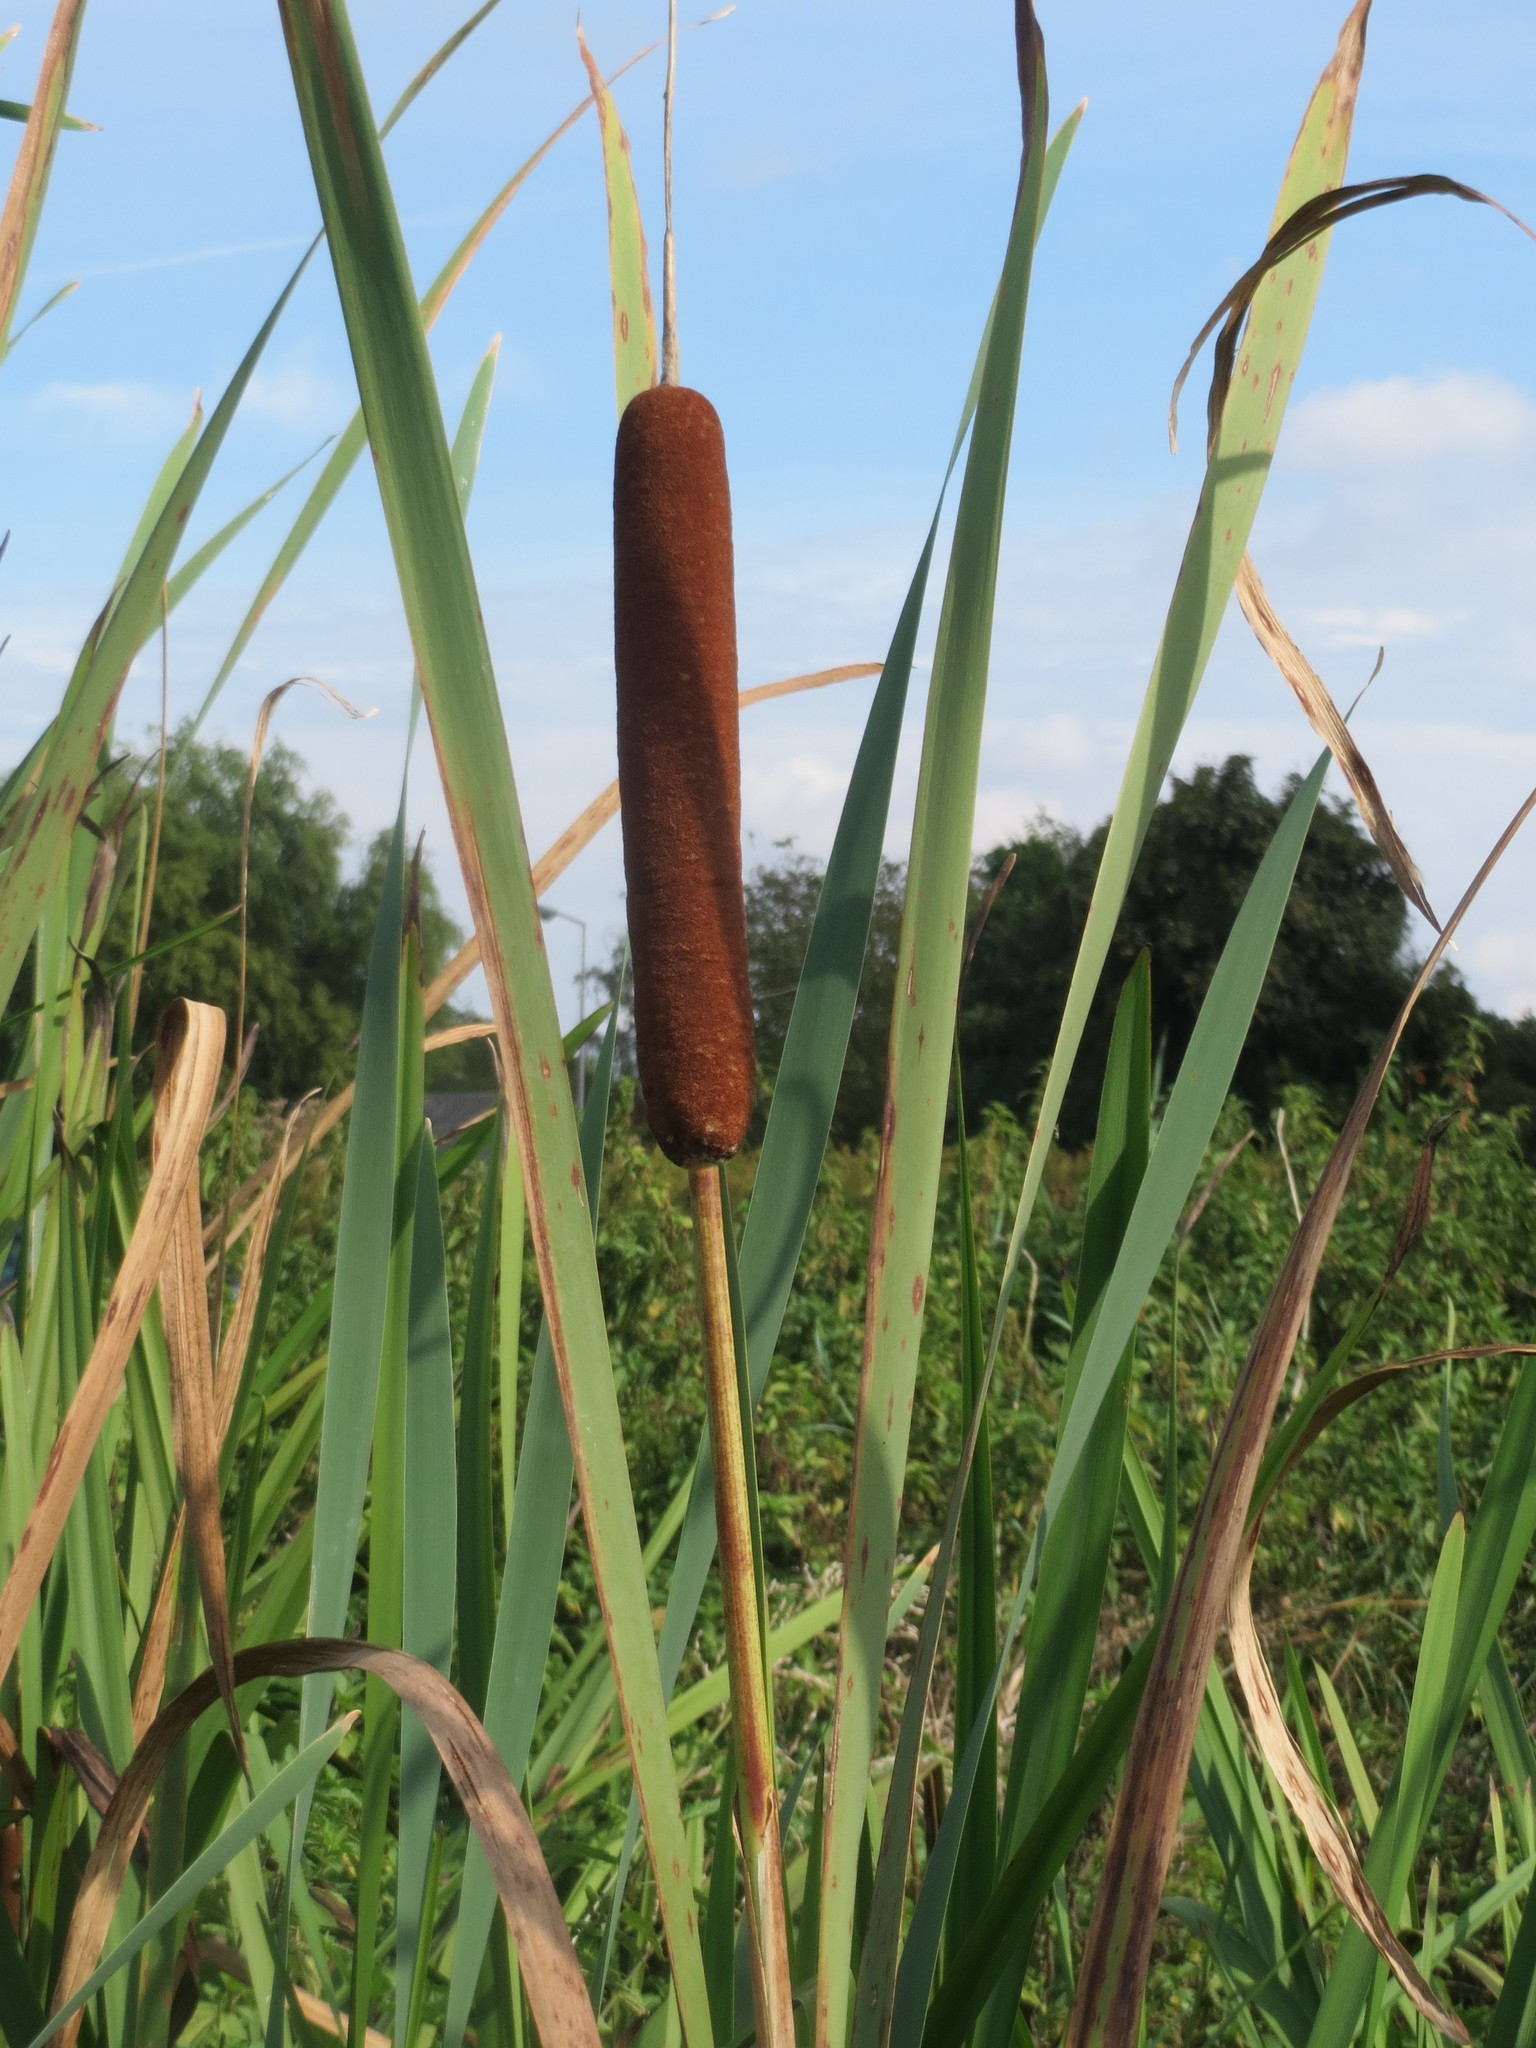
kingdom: Plantae
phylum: Tracheophyta
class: Liliopsida
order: Poales
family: Typhaceae
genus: Typha
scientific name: Typha latifolia
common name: Broadleaf cattail
